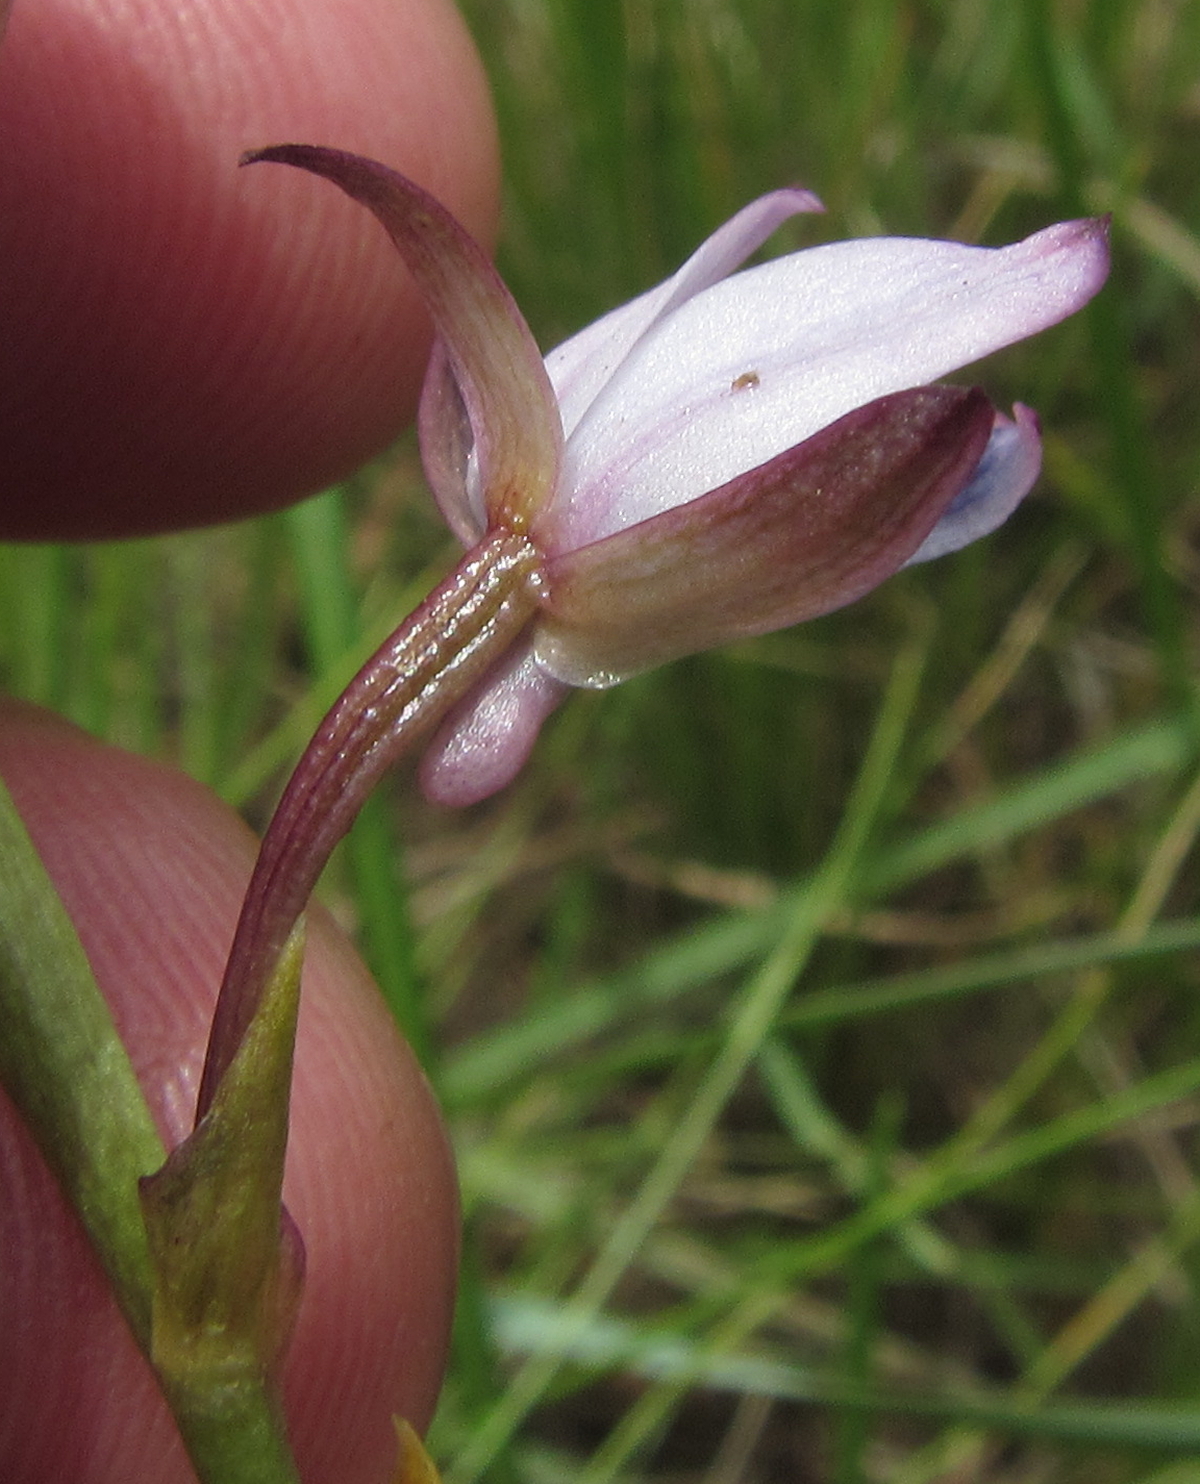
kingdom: Plantae
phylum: Tracheophyta
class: Liliopsida
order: Asparagales
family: Orchidaceae
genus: Eulophia
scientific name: Eulophia zeyheriana
